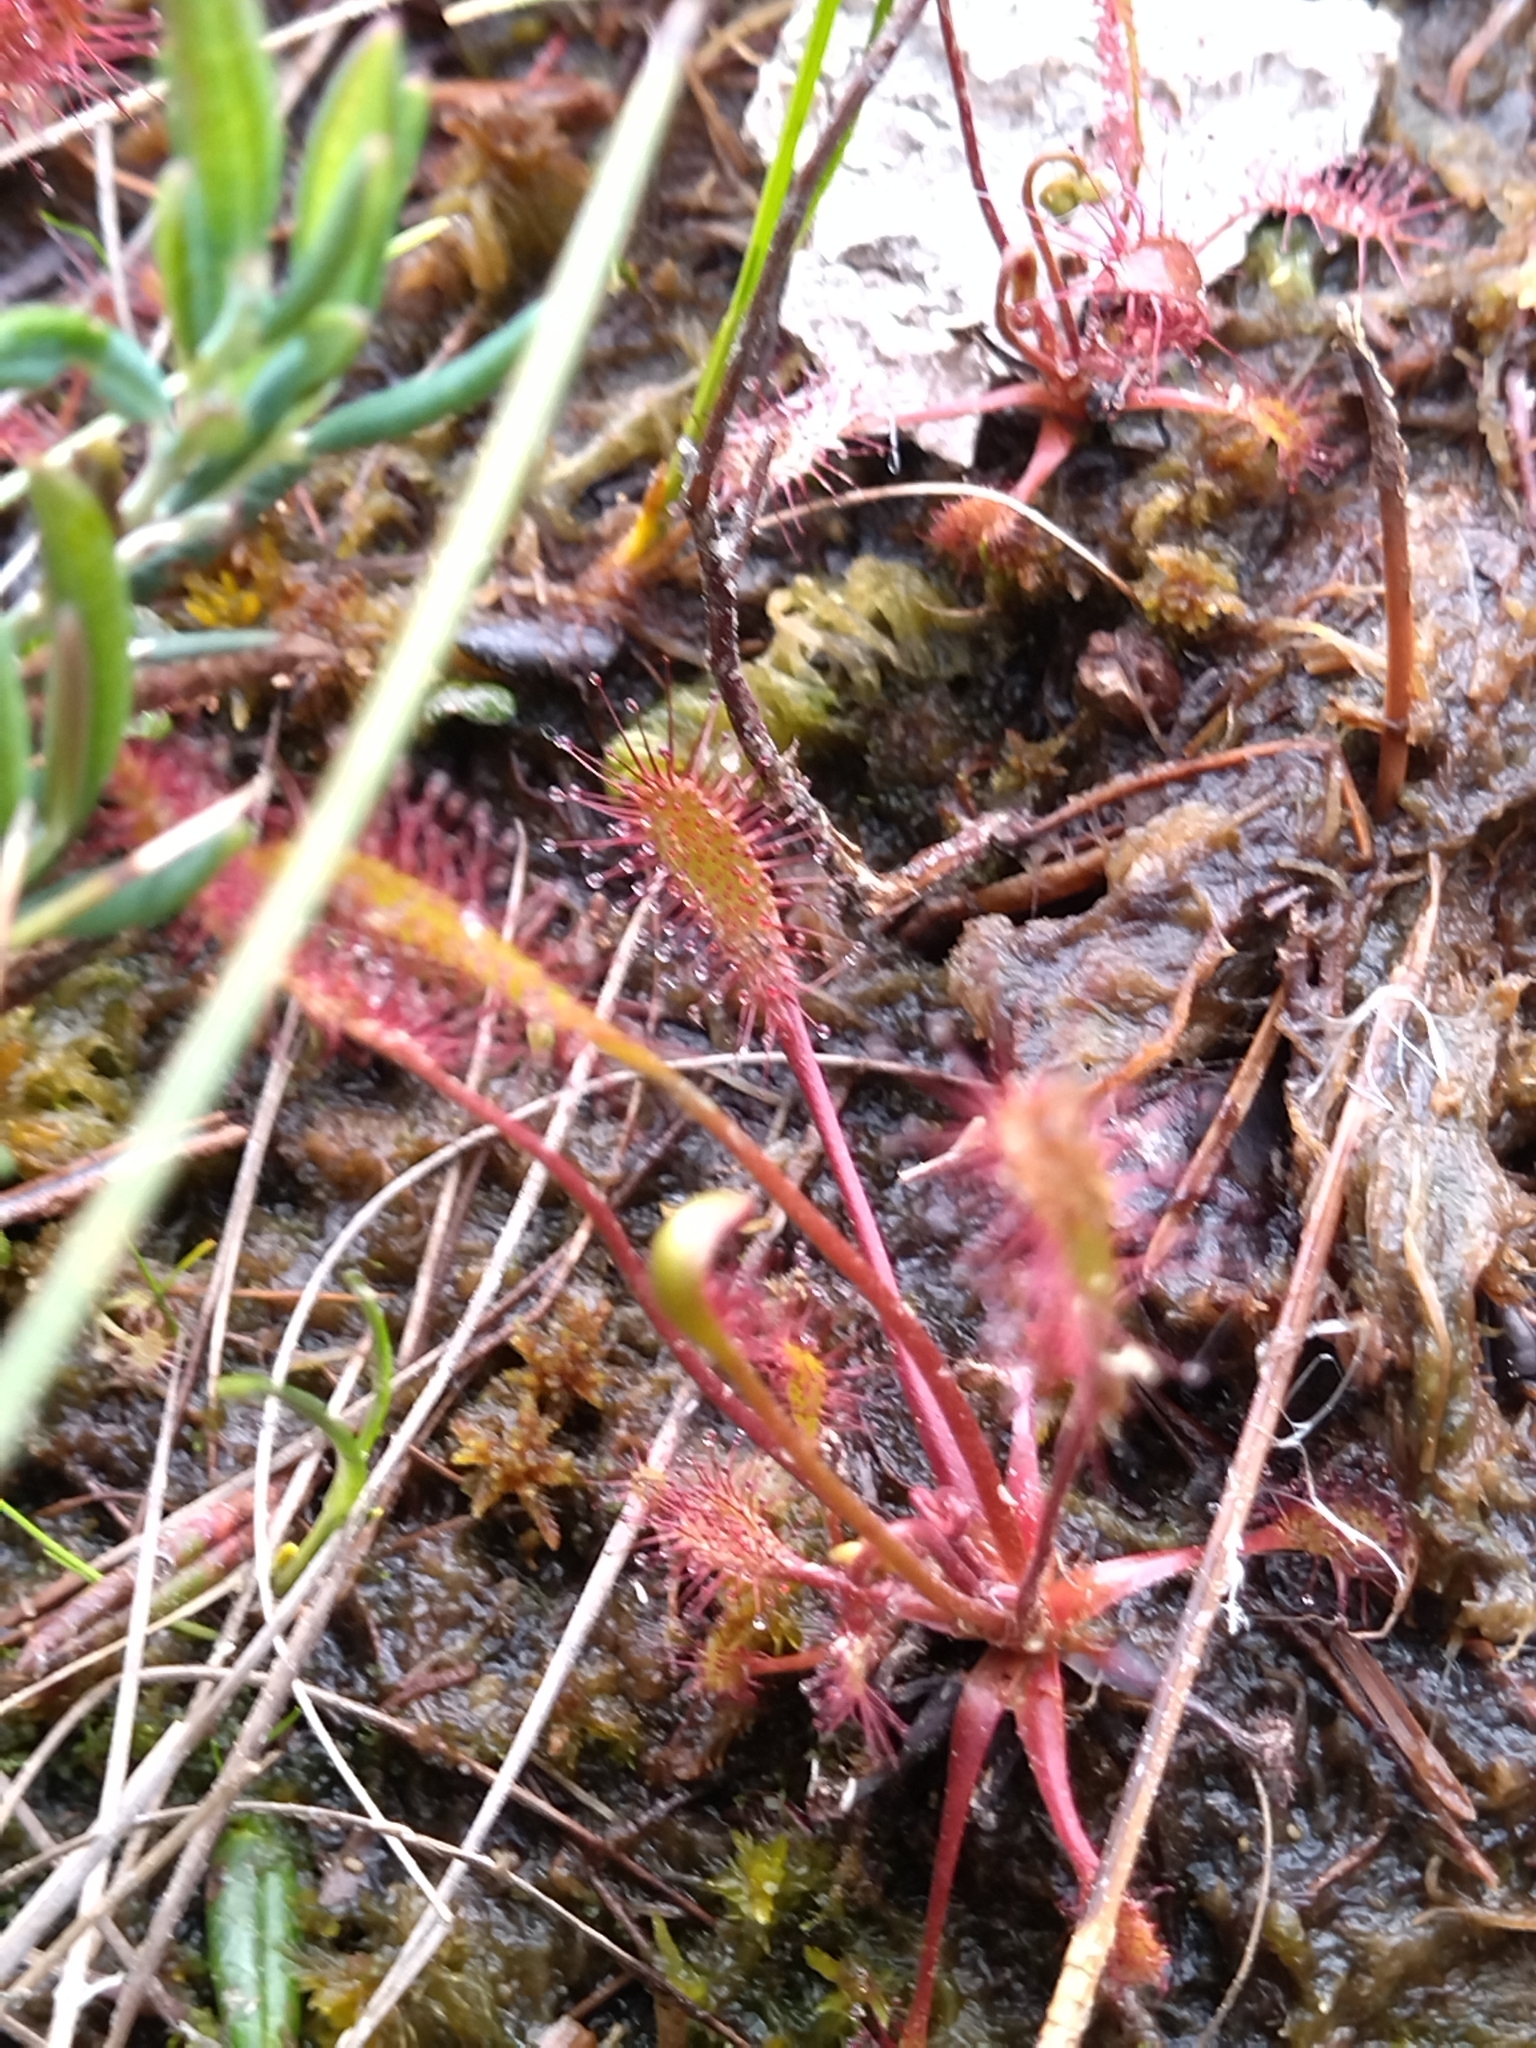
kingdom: Plantae
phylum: Tracheophyta
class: Magnoliopsida
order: Caryophyllales
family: Droseraceae
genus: Drosera
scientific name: Drosera anglica
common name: Great sundew
